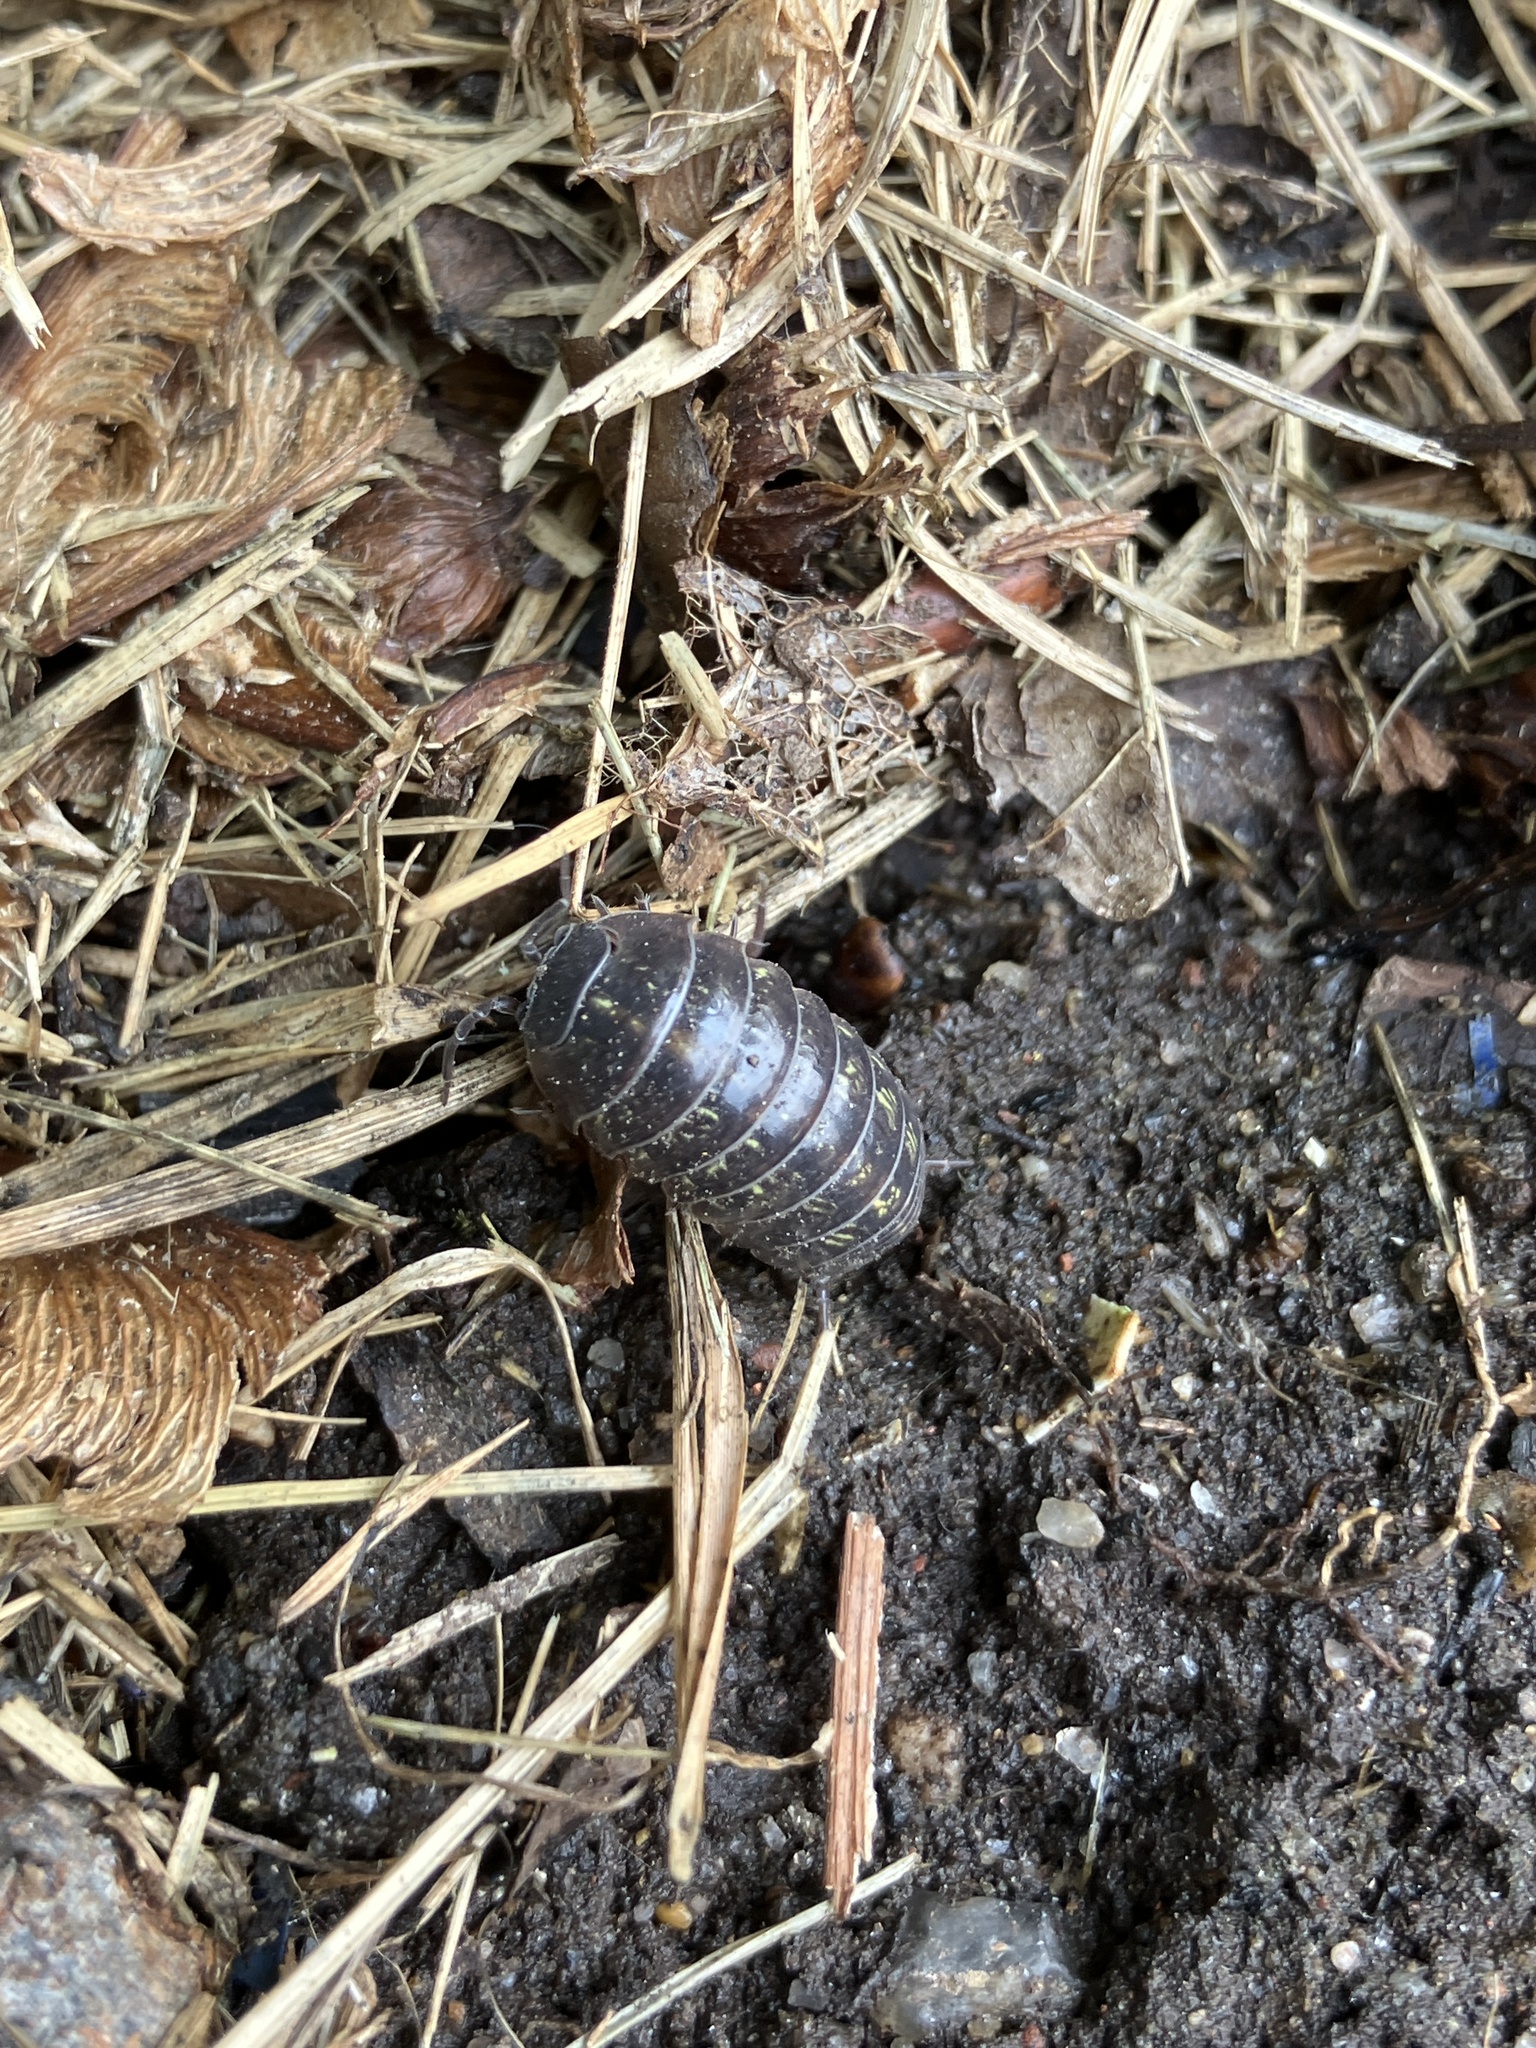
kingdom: Animalia
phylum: Arthropoda
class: Malacostraca
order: Isopoda
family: Armadillidiidae
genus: Armadillidium
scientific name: Armadillidium vulgare
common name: Common pill woodlouse
